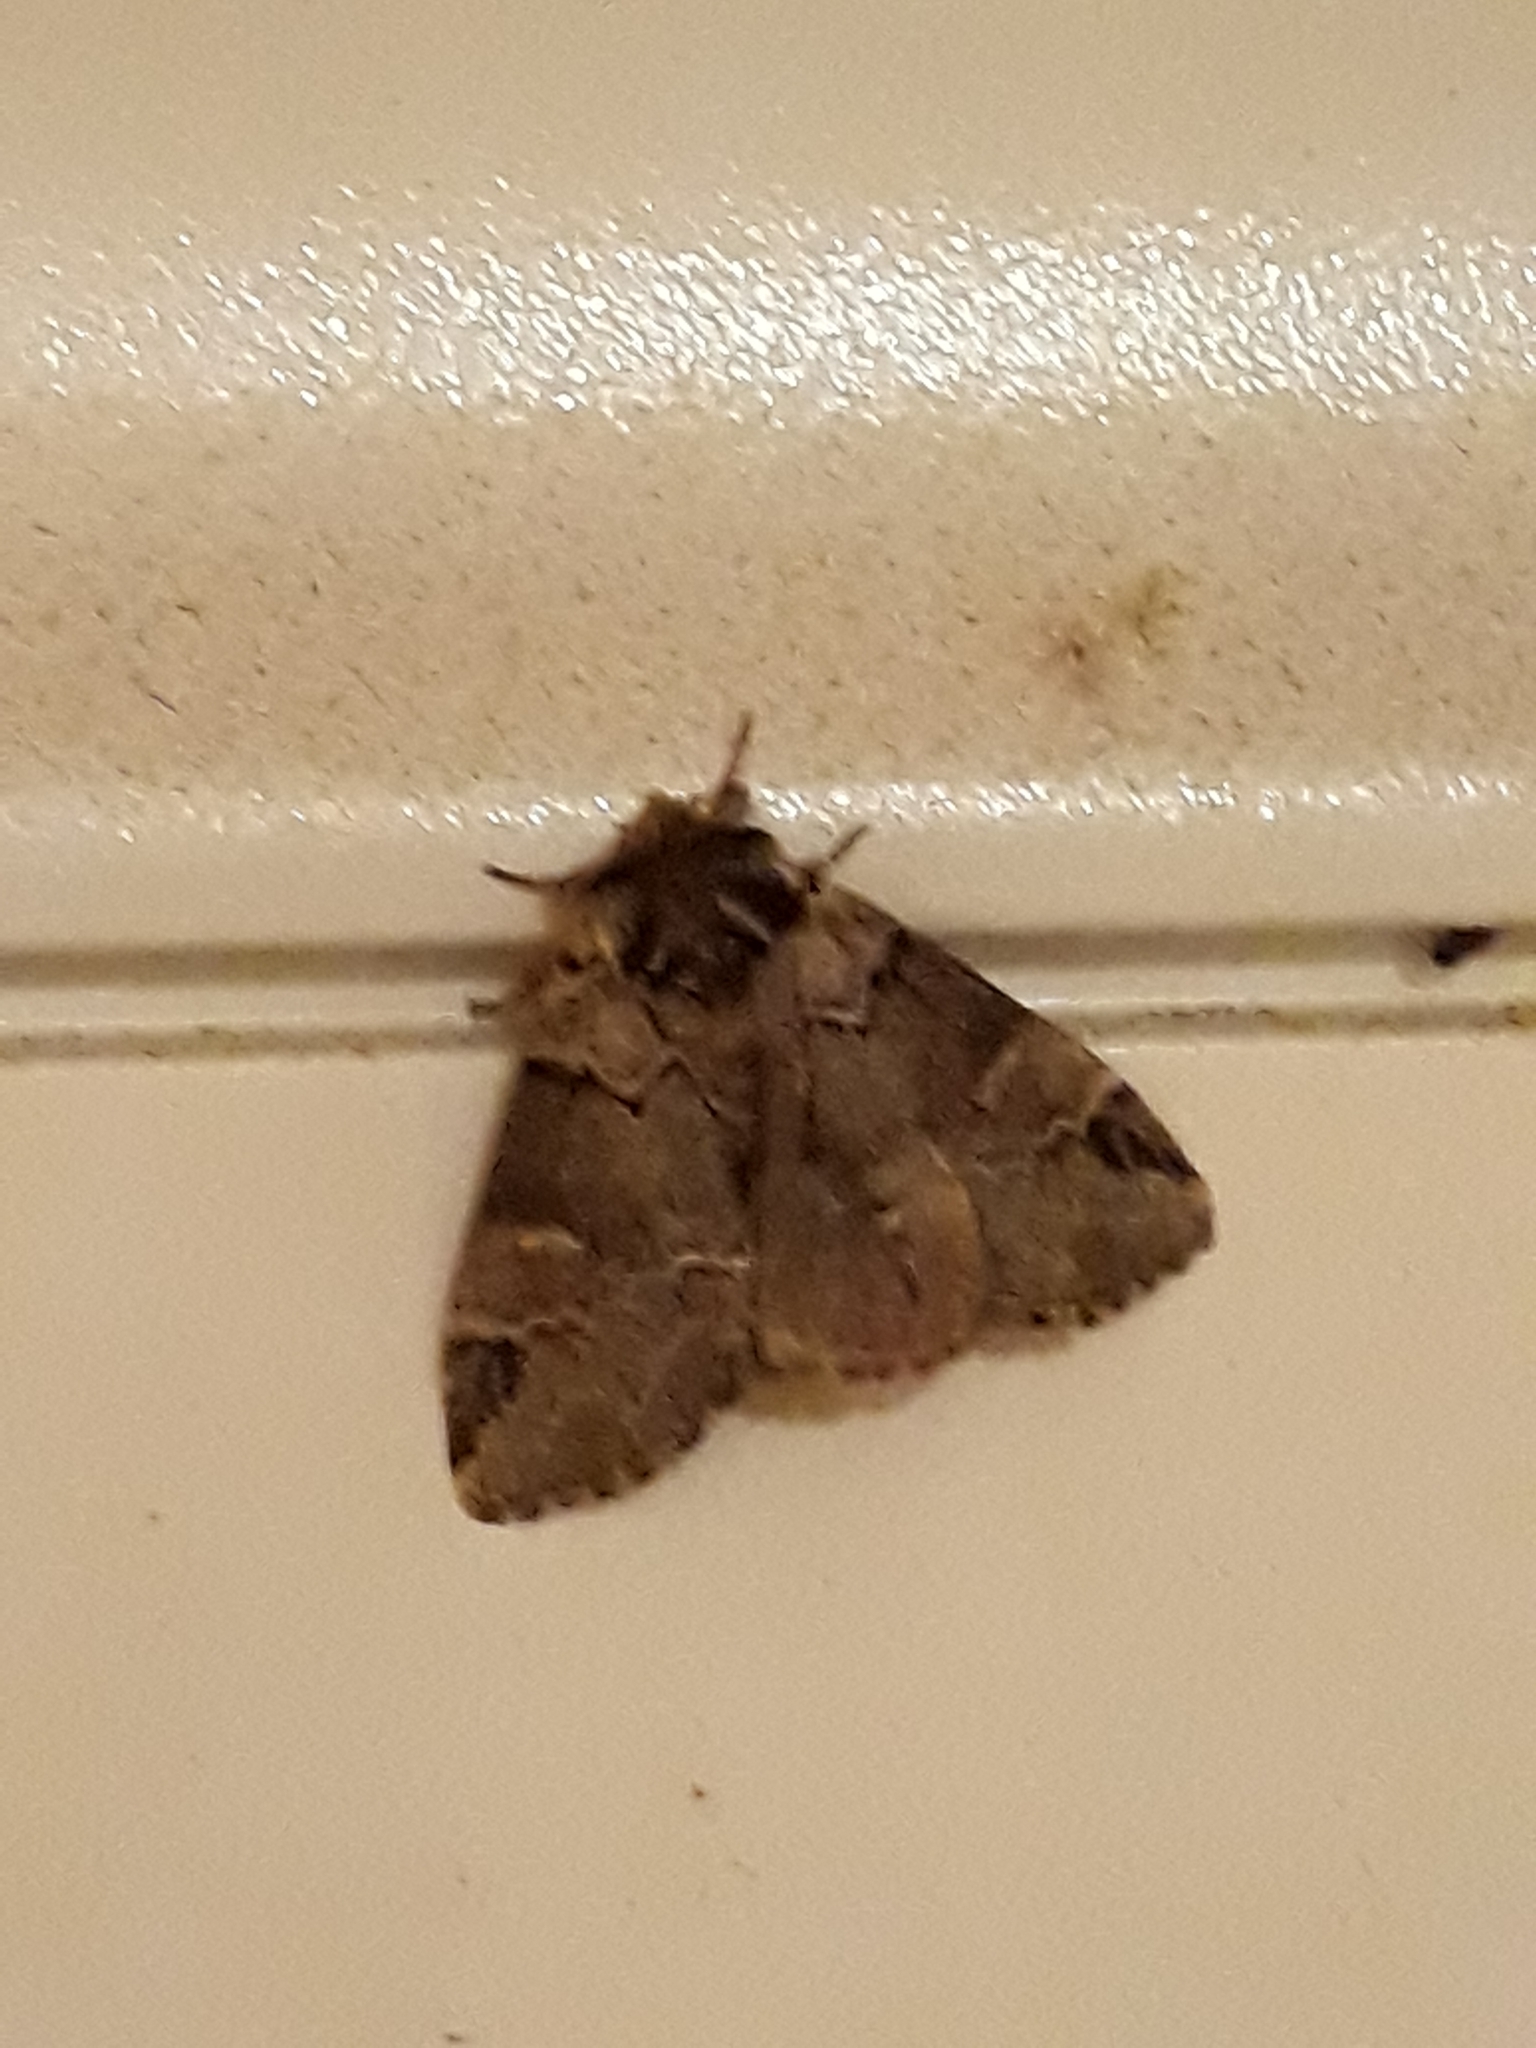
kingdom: Animalia
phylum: Arthropoda
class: Insecta
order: Lepidoptera
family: Notodontidae
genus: Drymonia
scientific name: Drymonia obliterata
